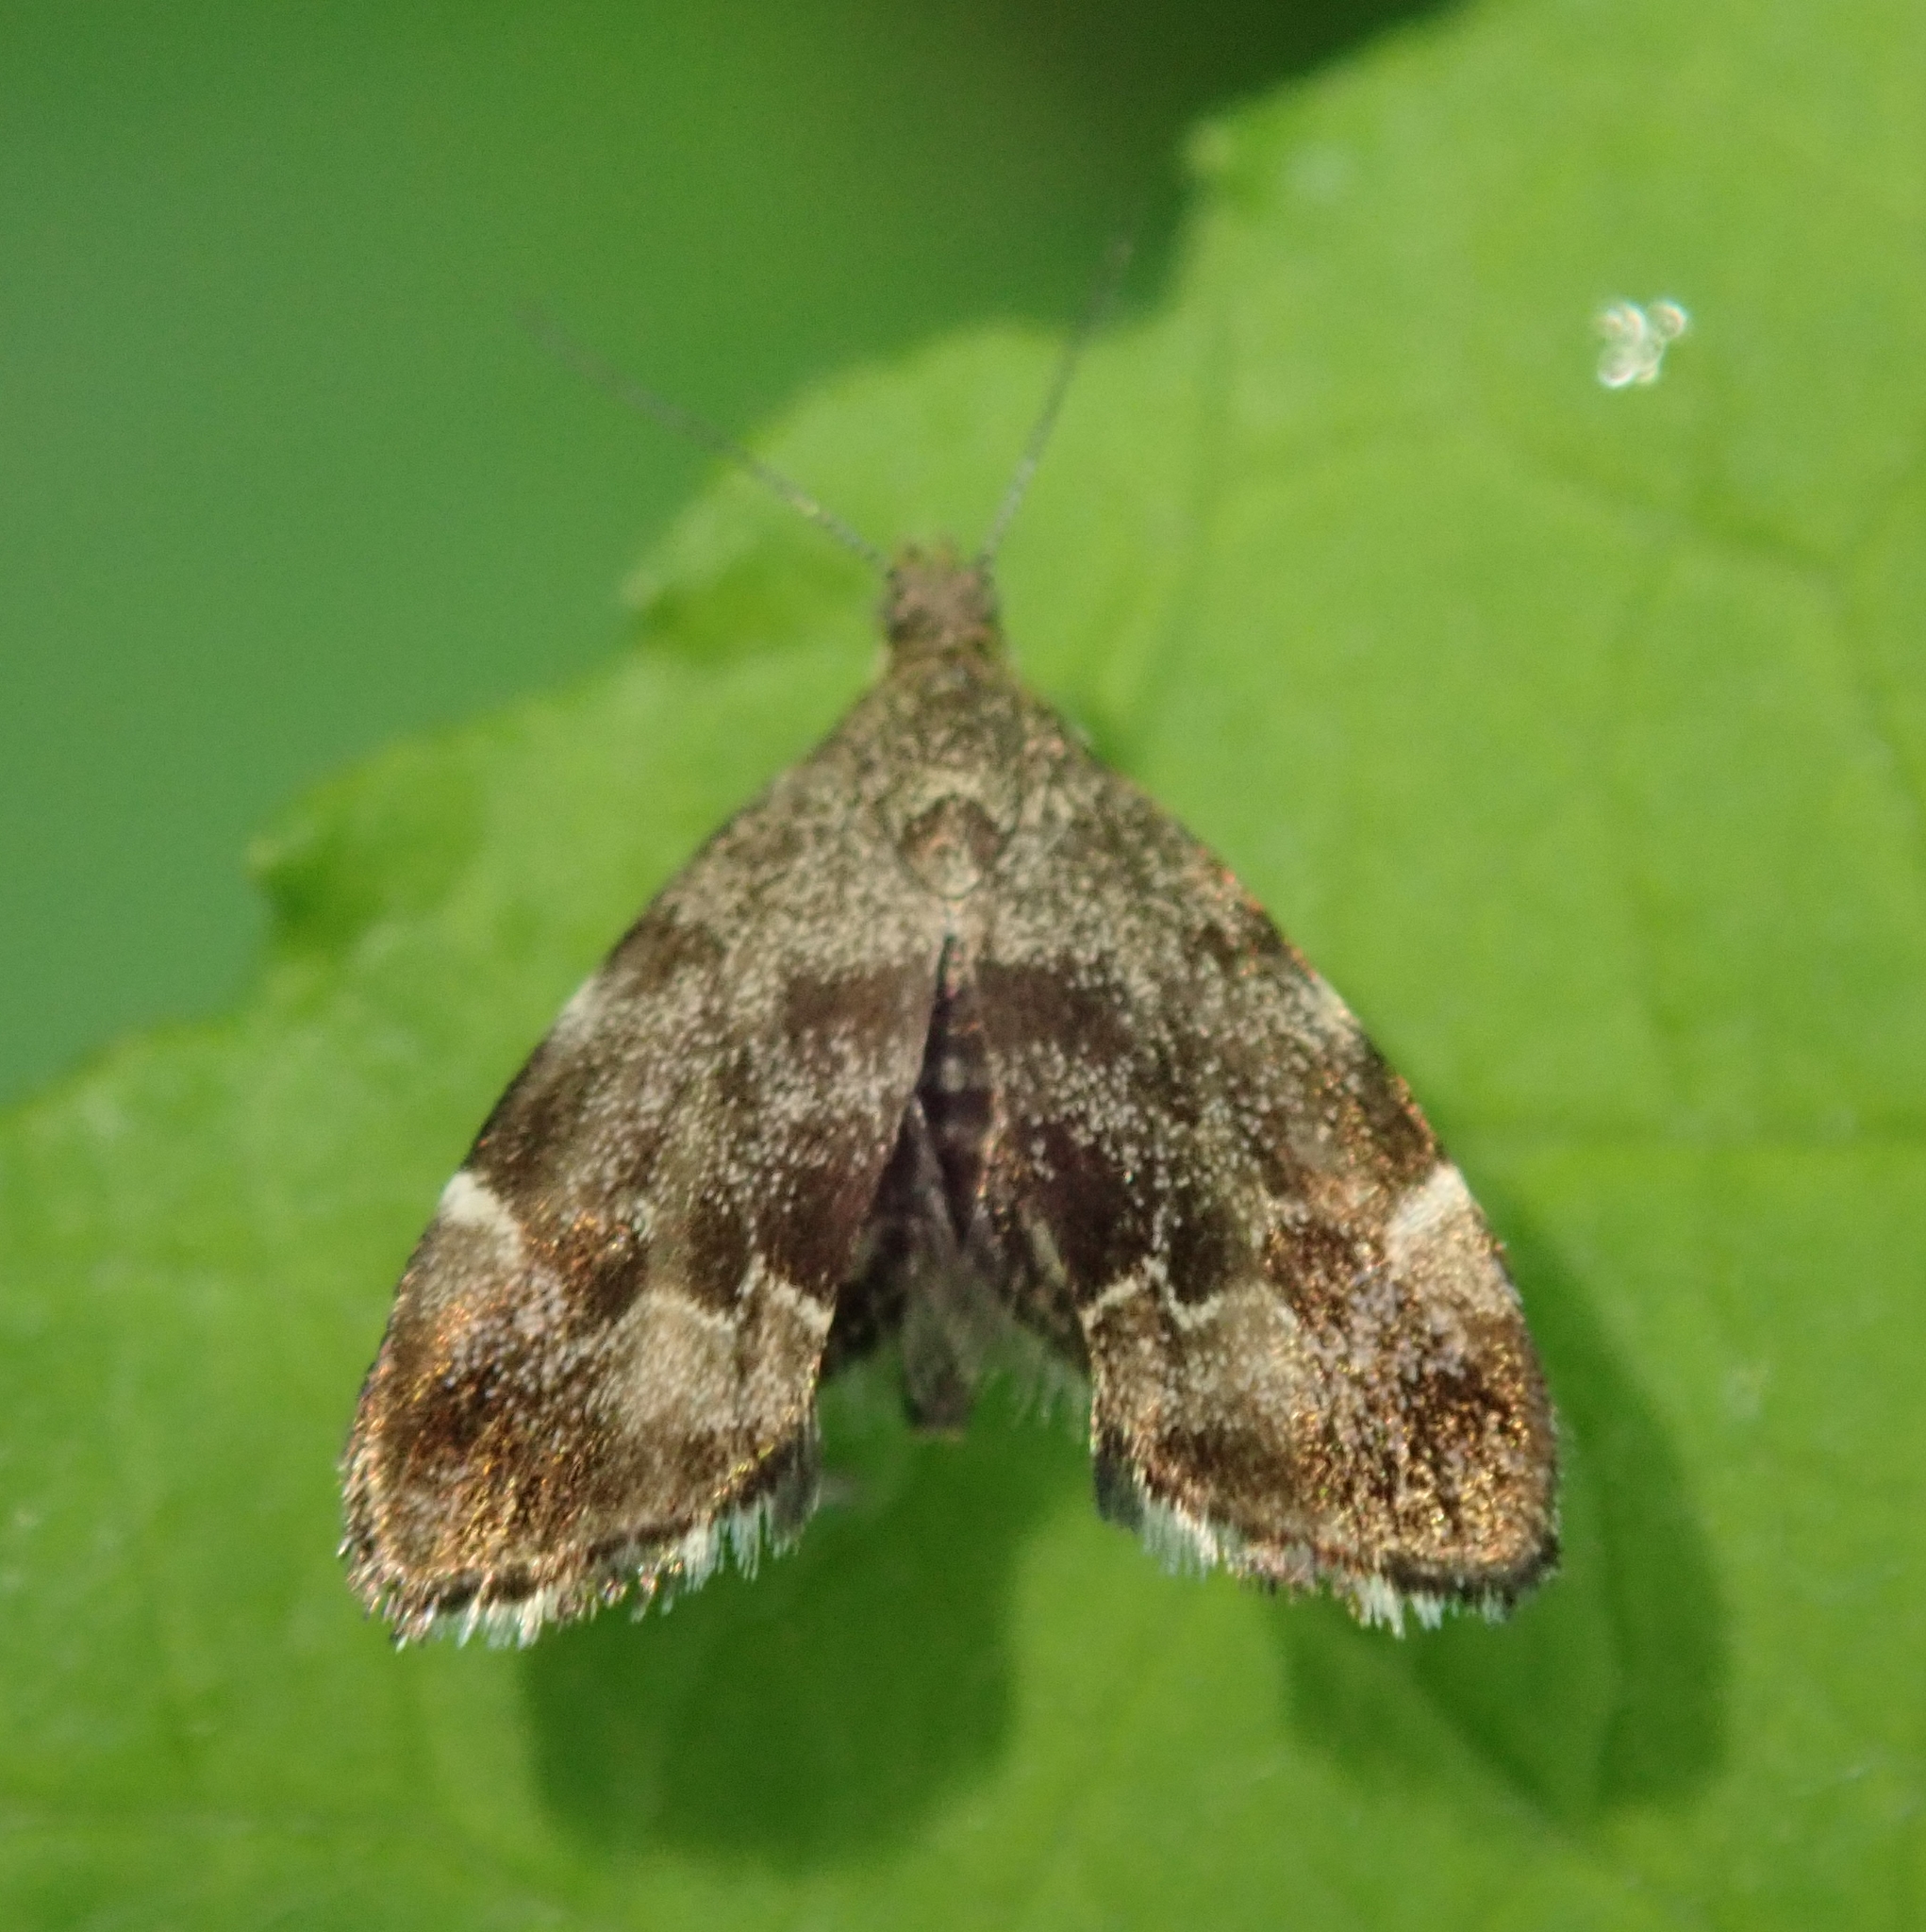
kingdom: Animalia
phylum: Arthropoda
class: Insecta
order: Lepidoptera
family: Choreutidae
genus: Anthophila
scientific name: Anthophila fabriciana
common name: Nettle-tap
